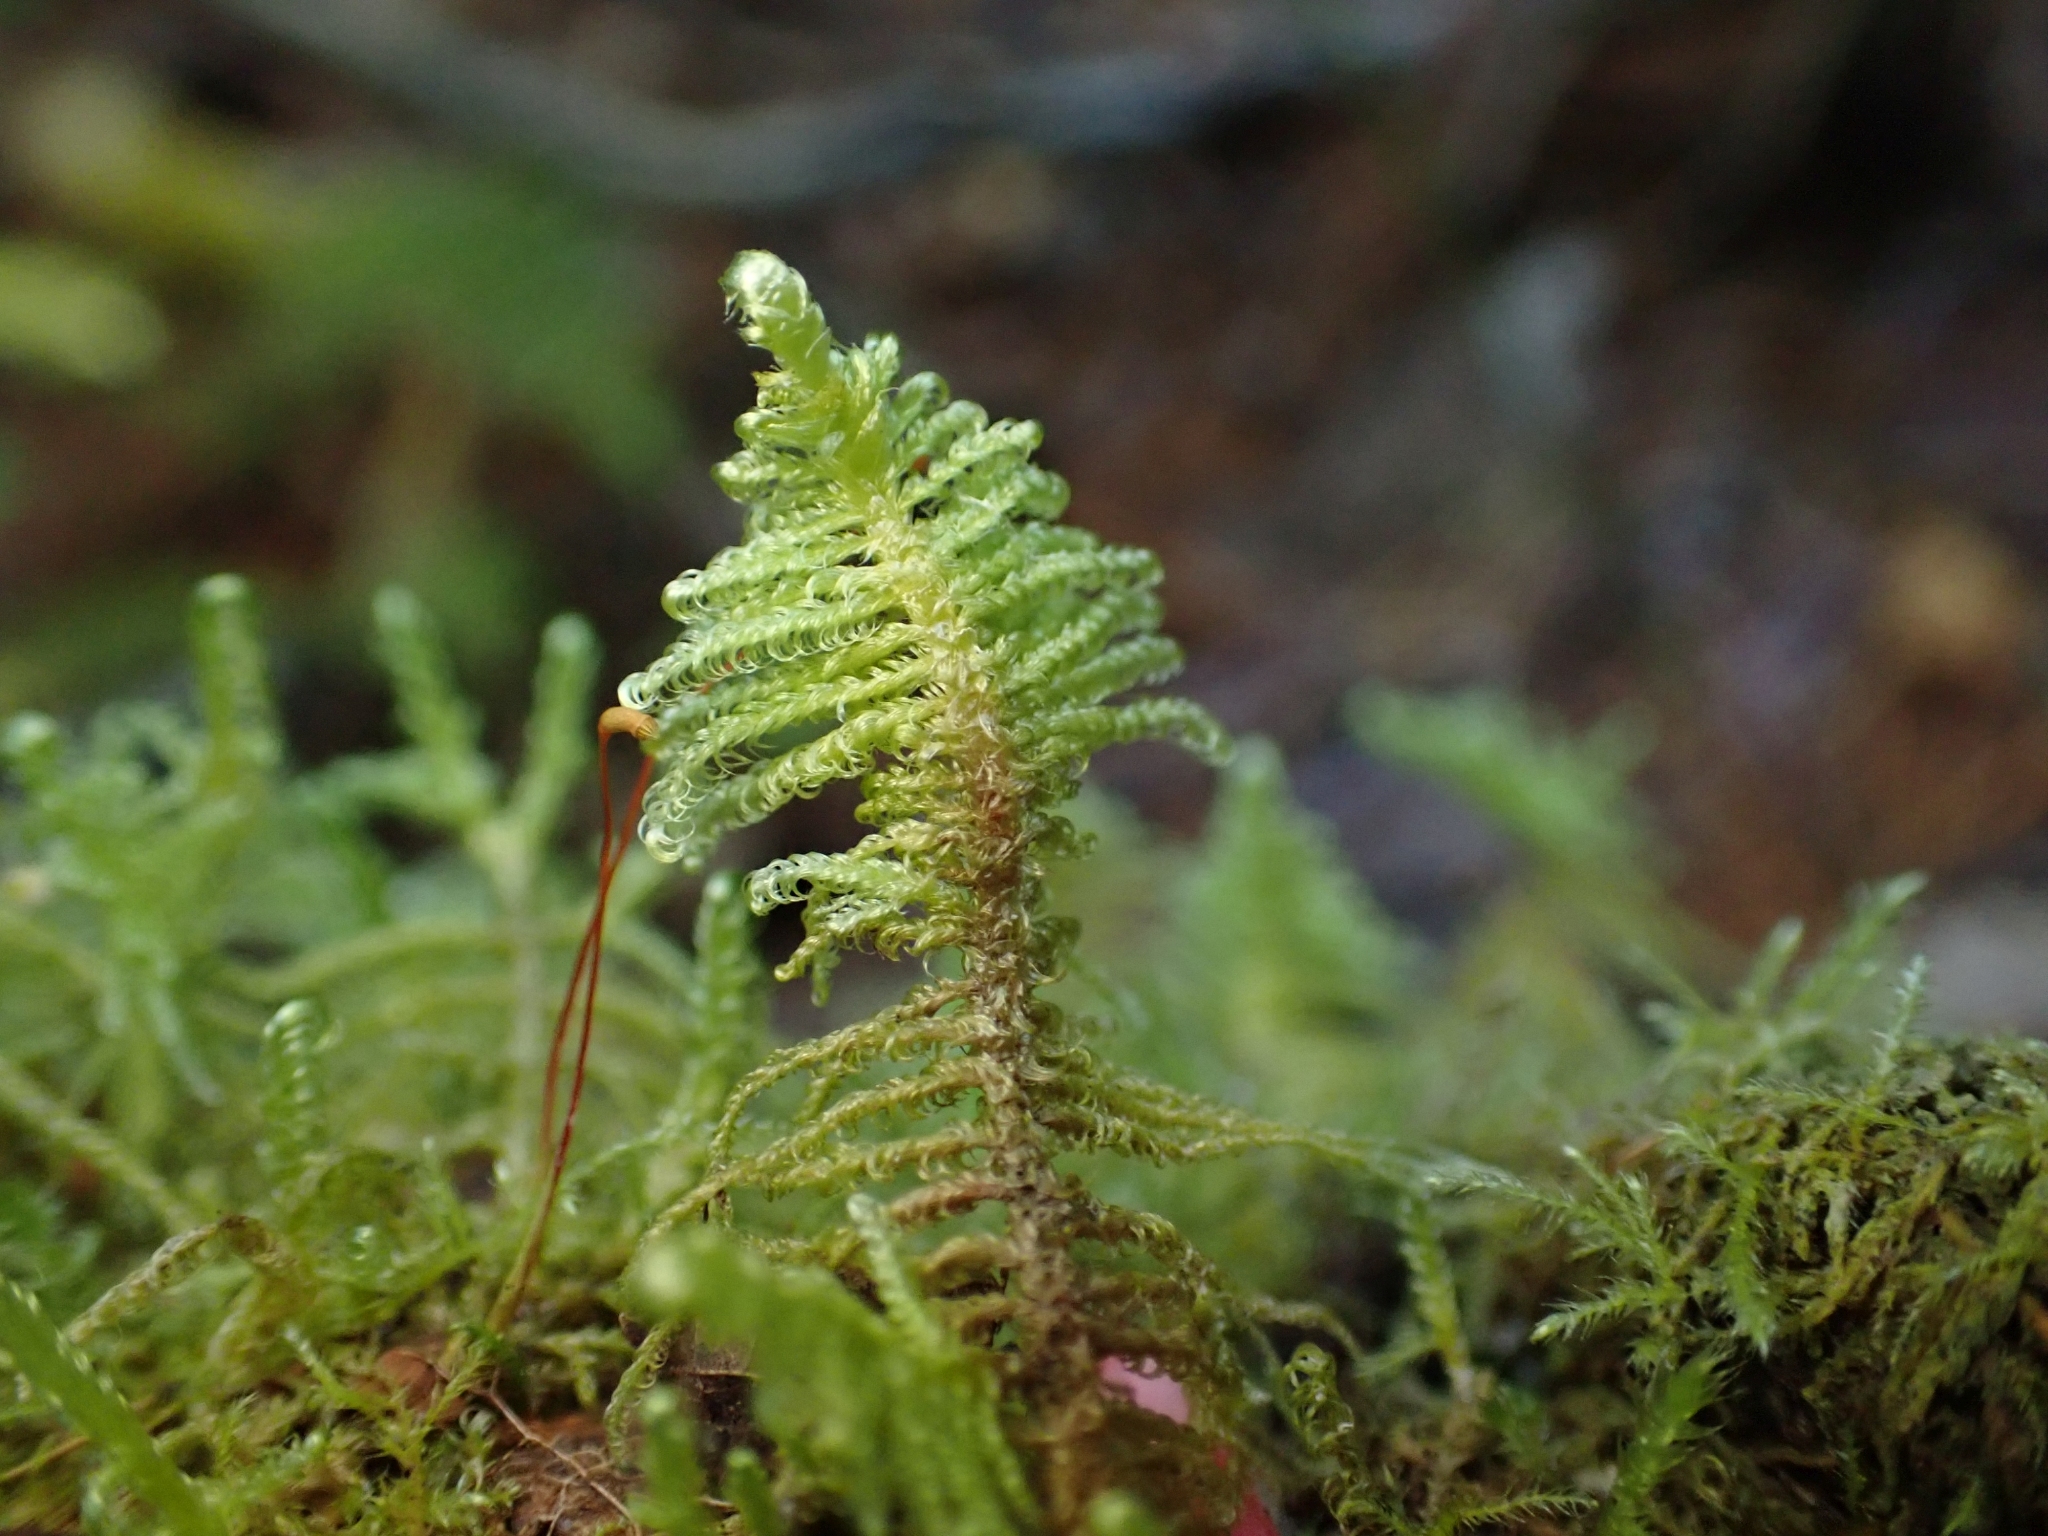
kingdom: Plantae
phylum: Bryophyta
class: Bryopsida
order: Hypnales
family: Pylaisiaceae
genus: Ptilium
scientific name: Ptilium crista-castrensis
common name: Knight's plume moss
